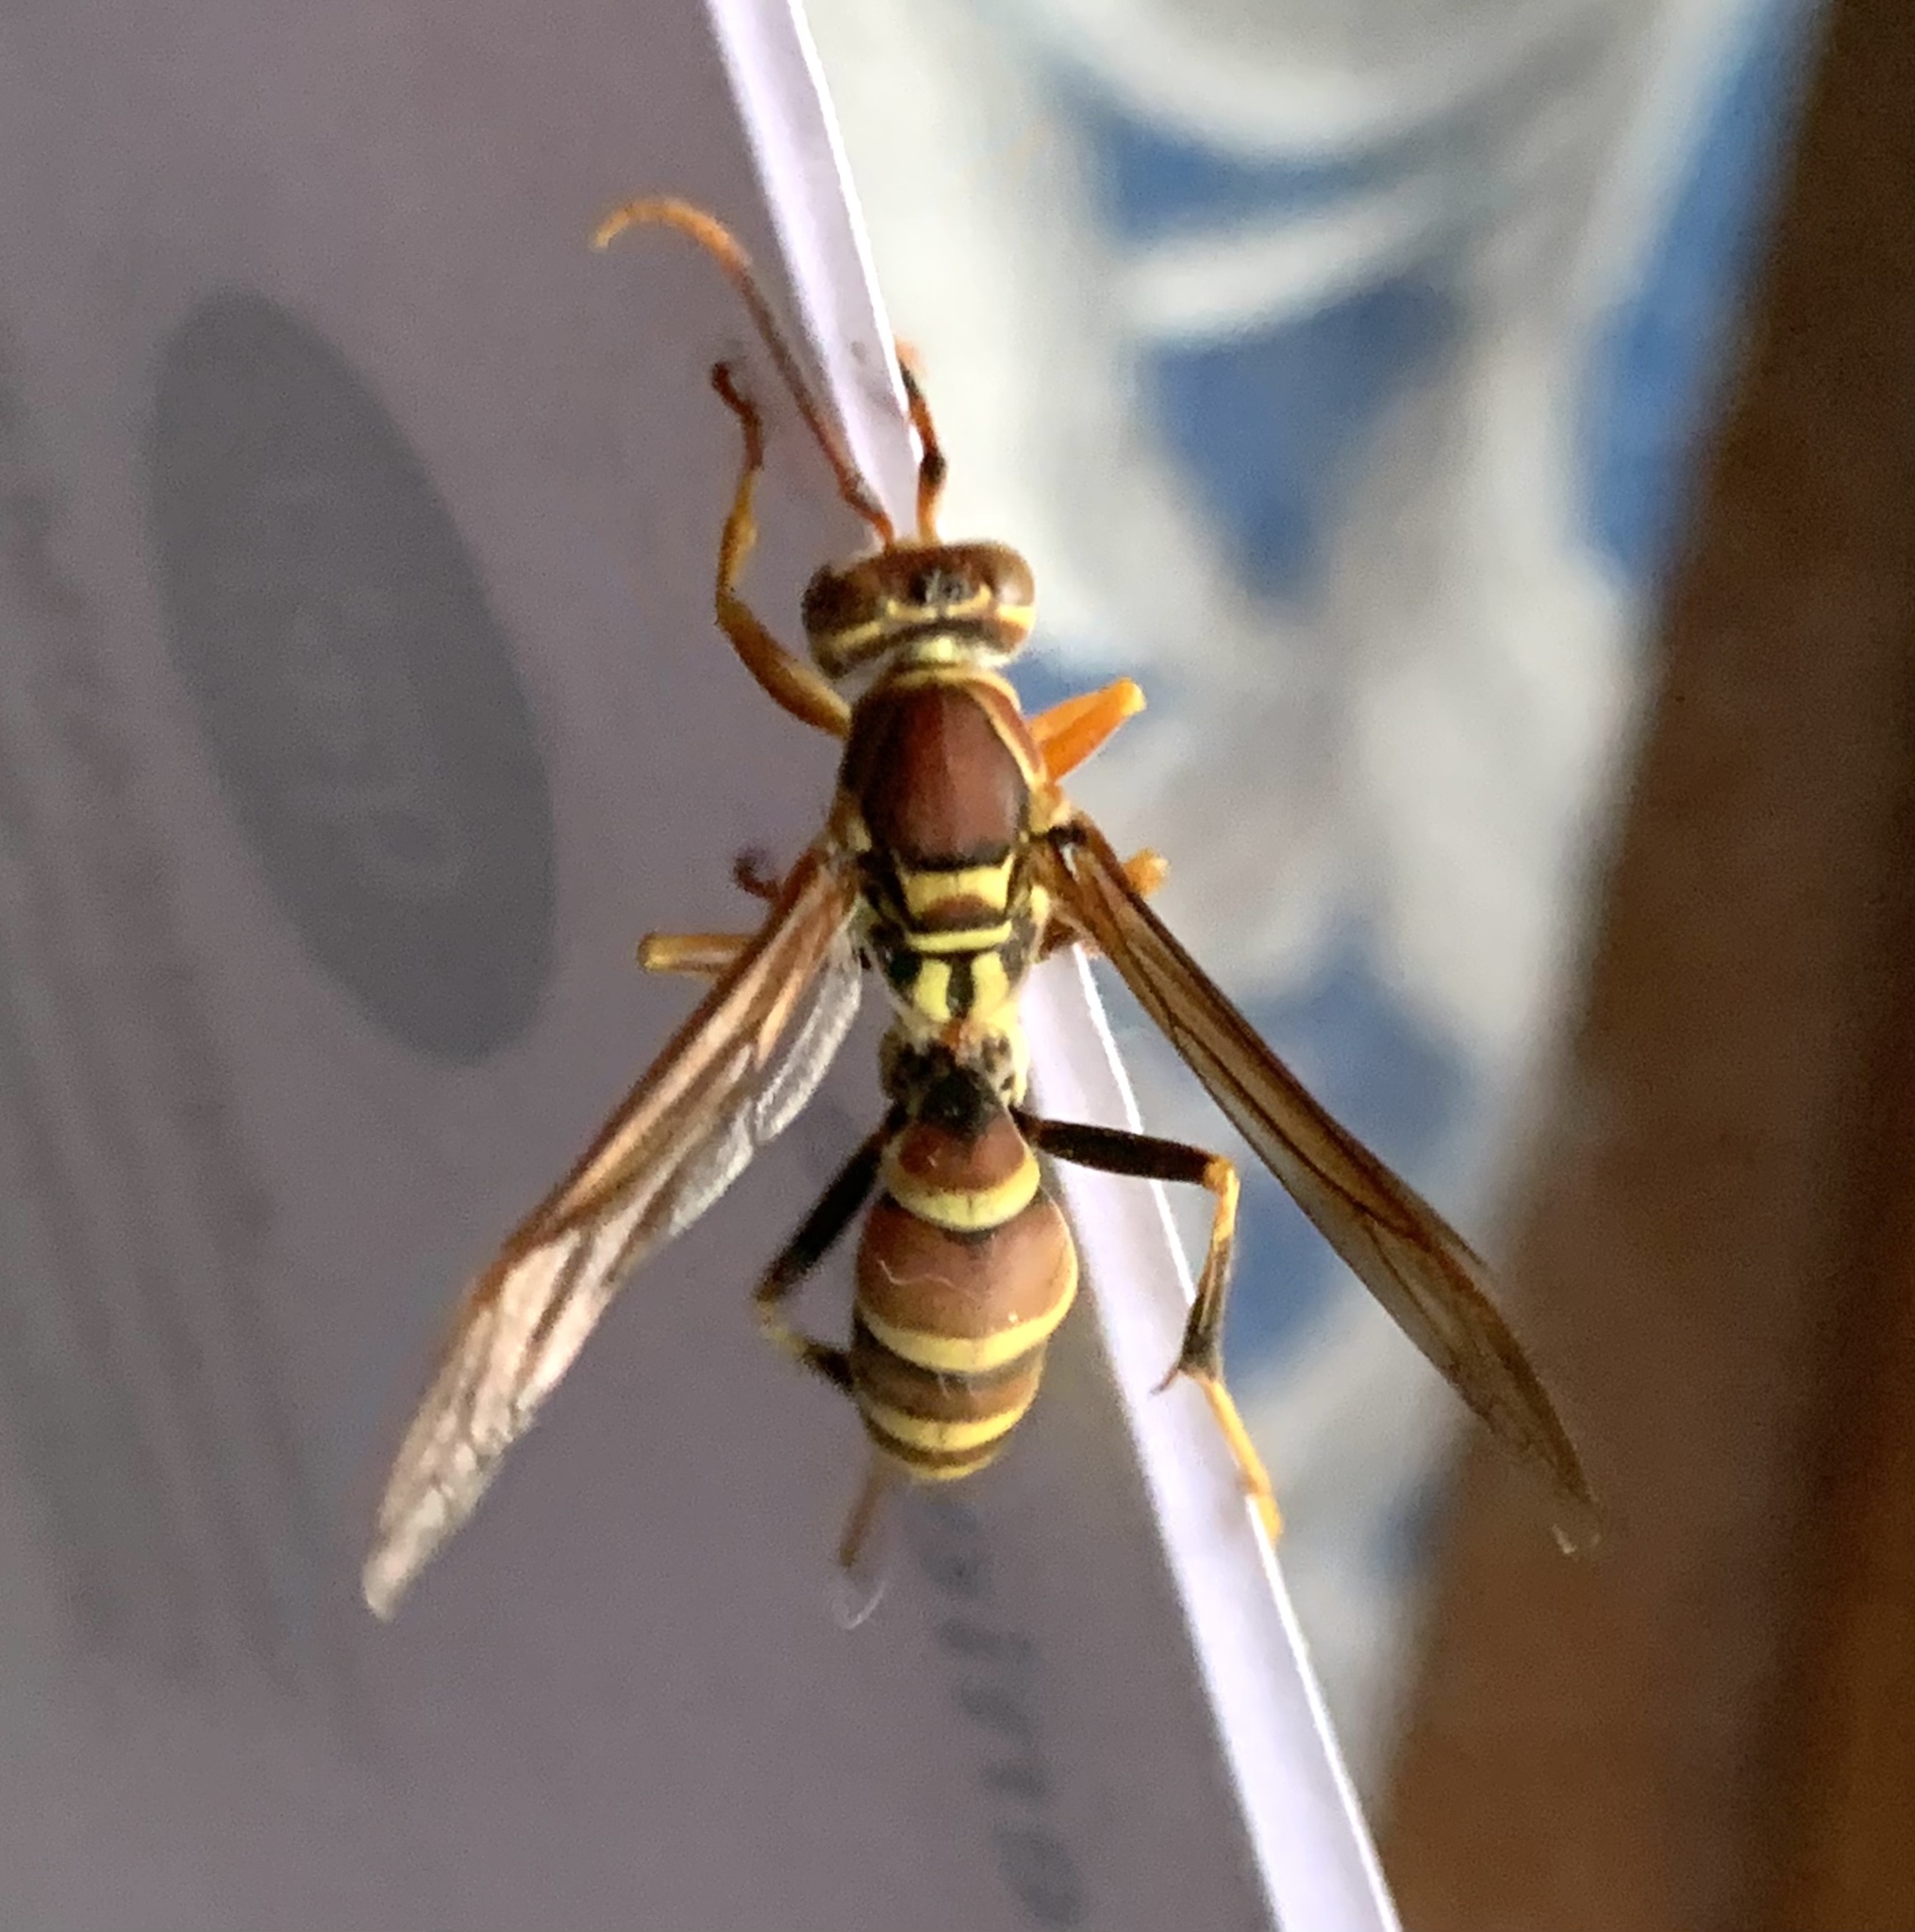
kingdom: Animalia
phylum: Arthropoda
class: Insecta
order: Hymenoptera
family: Eumenidae
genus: Polistes
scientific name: Polistes exclamans
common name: Paper wasp
